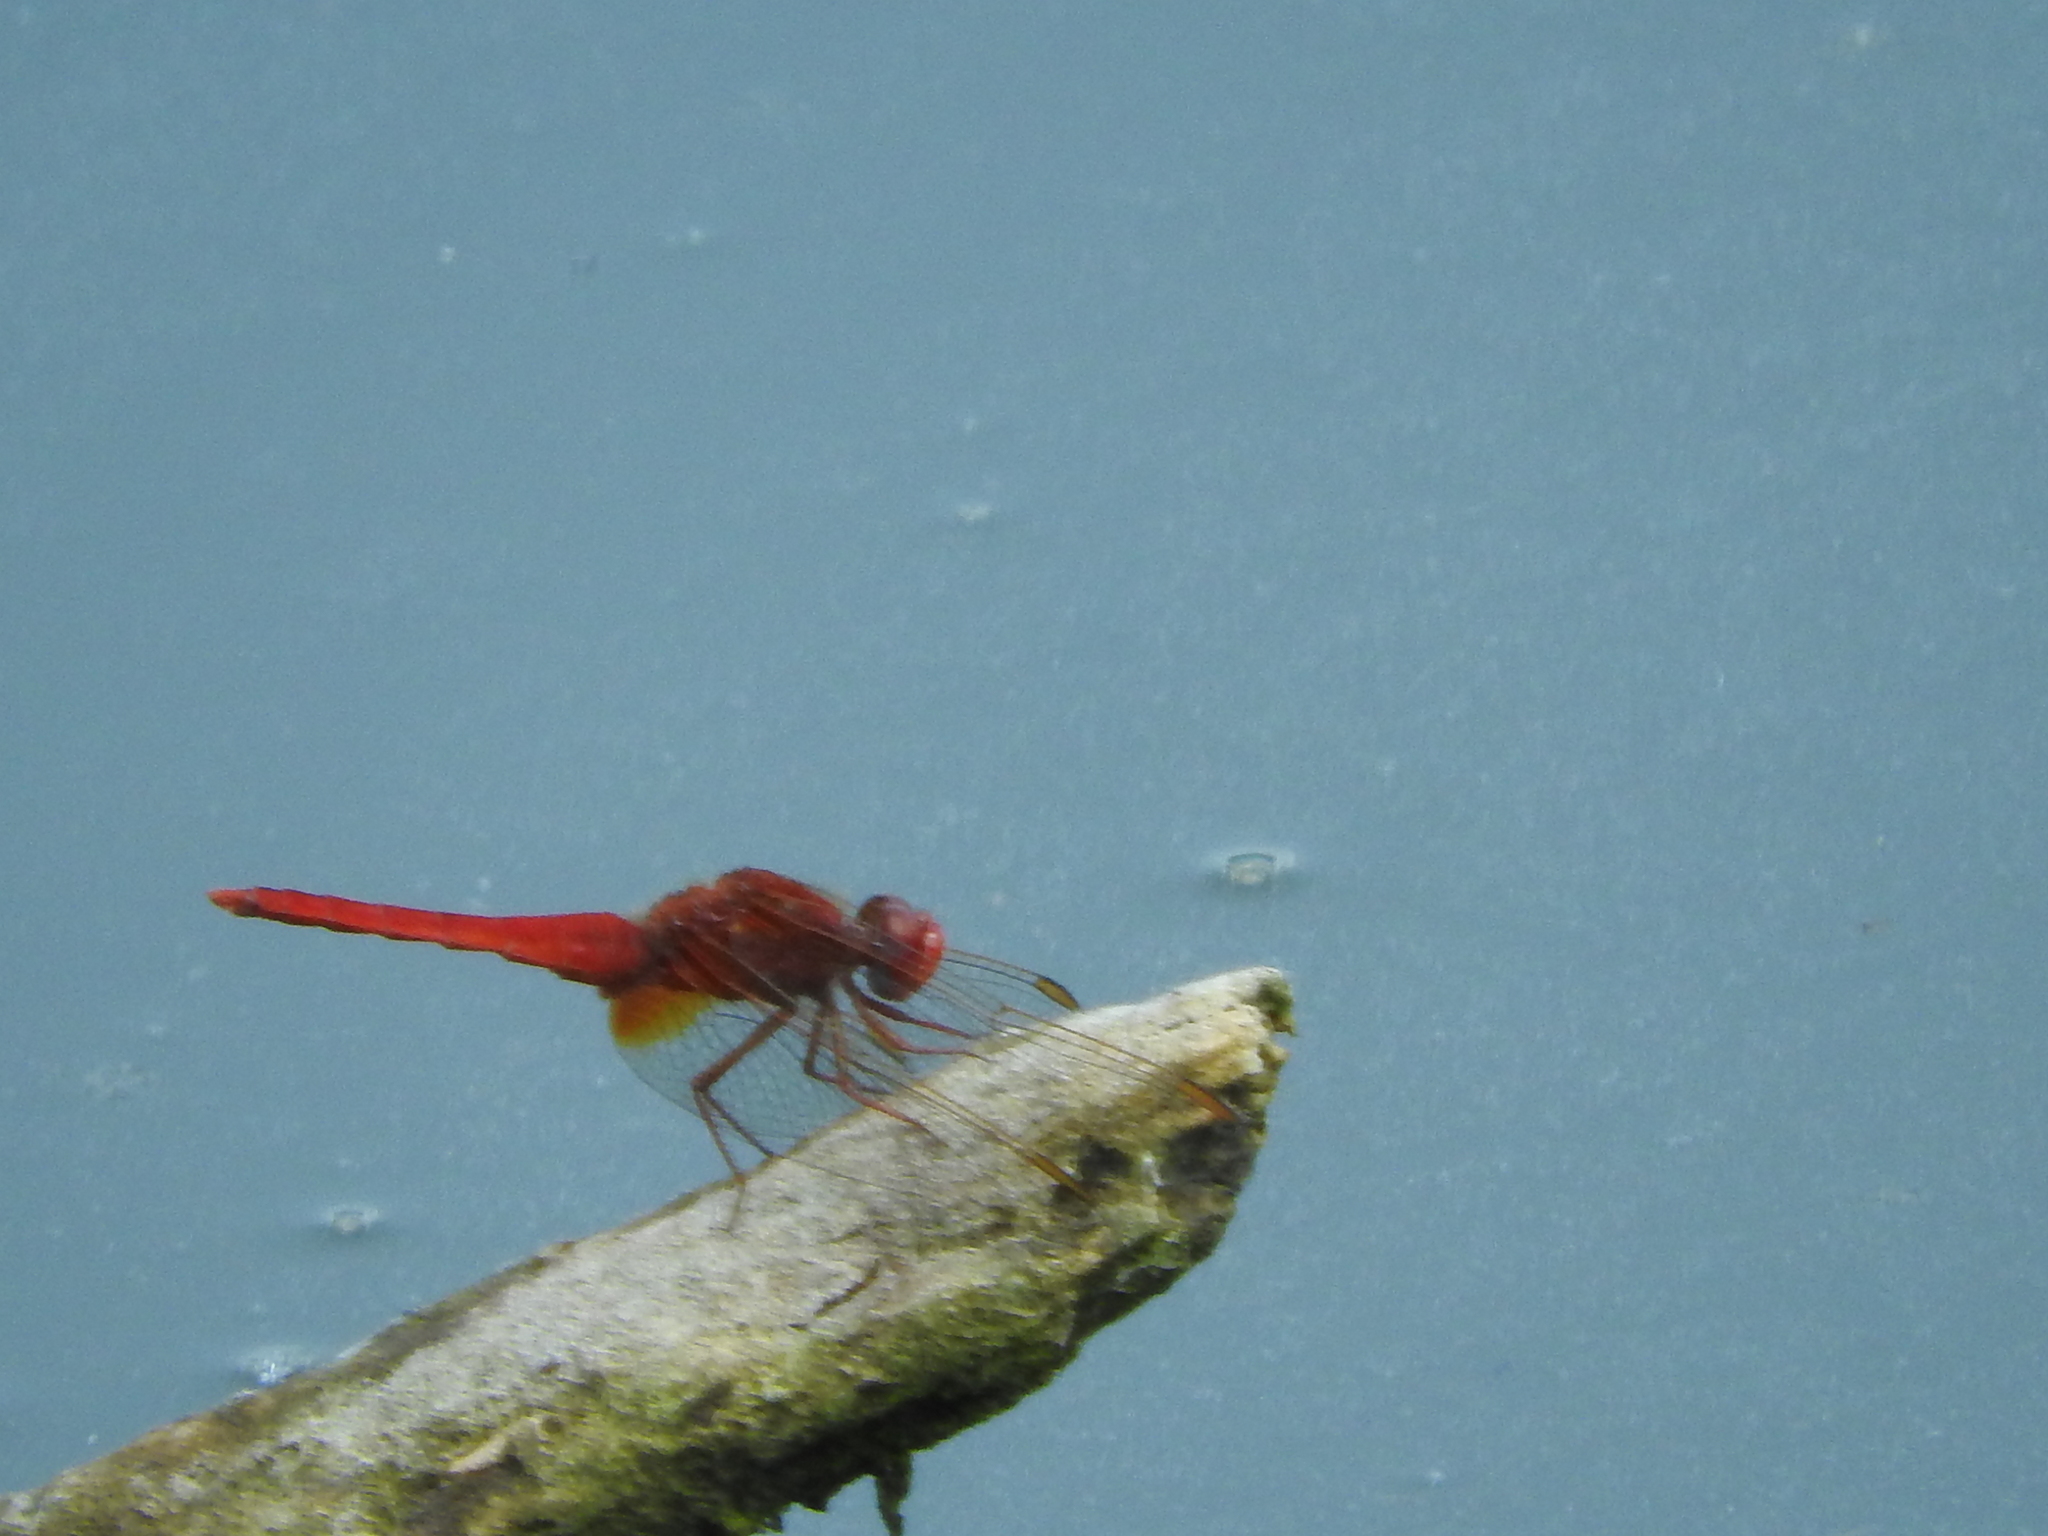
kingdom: Animalia
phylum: Arthropoda
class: Insecta
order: Odonata
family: Libellulidae
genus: Crocothemis
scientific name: Crocothemis erythraea
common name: Scarlet dragonfly
